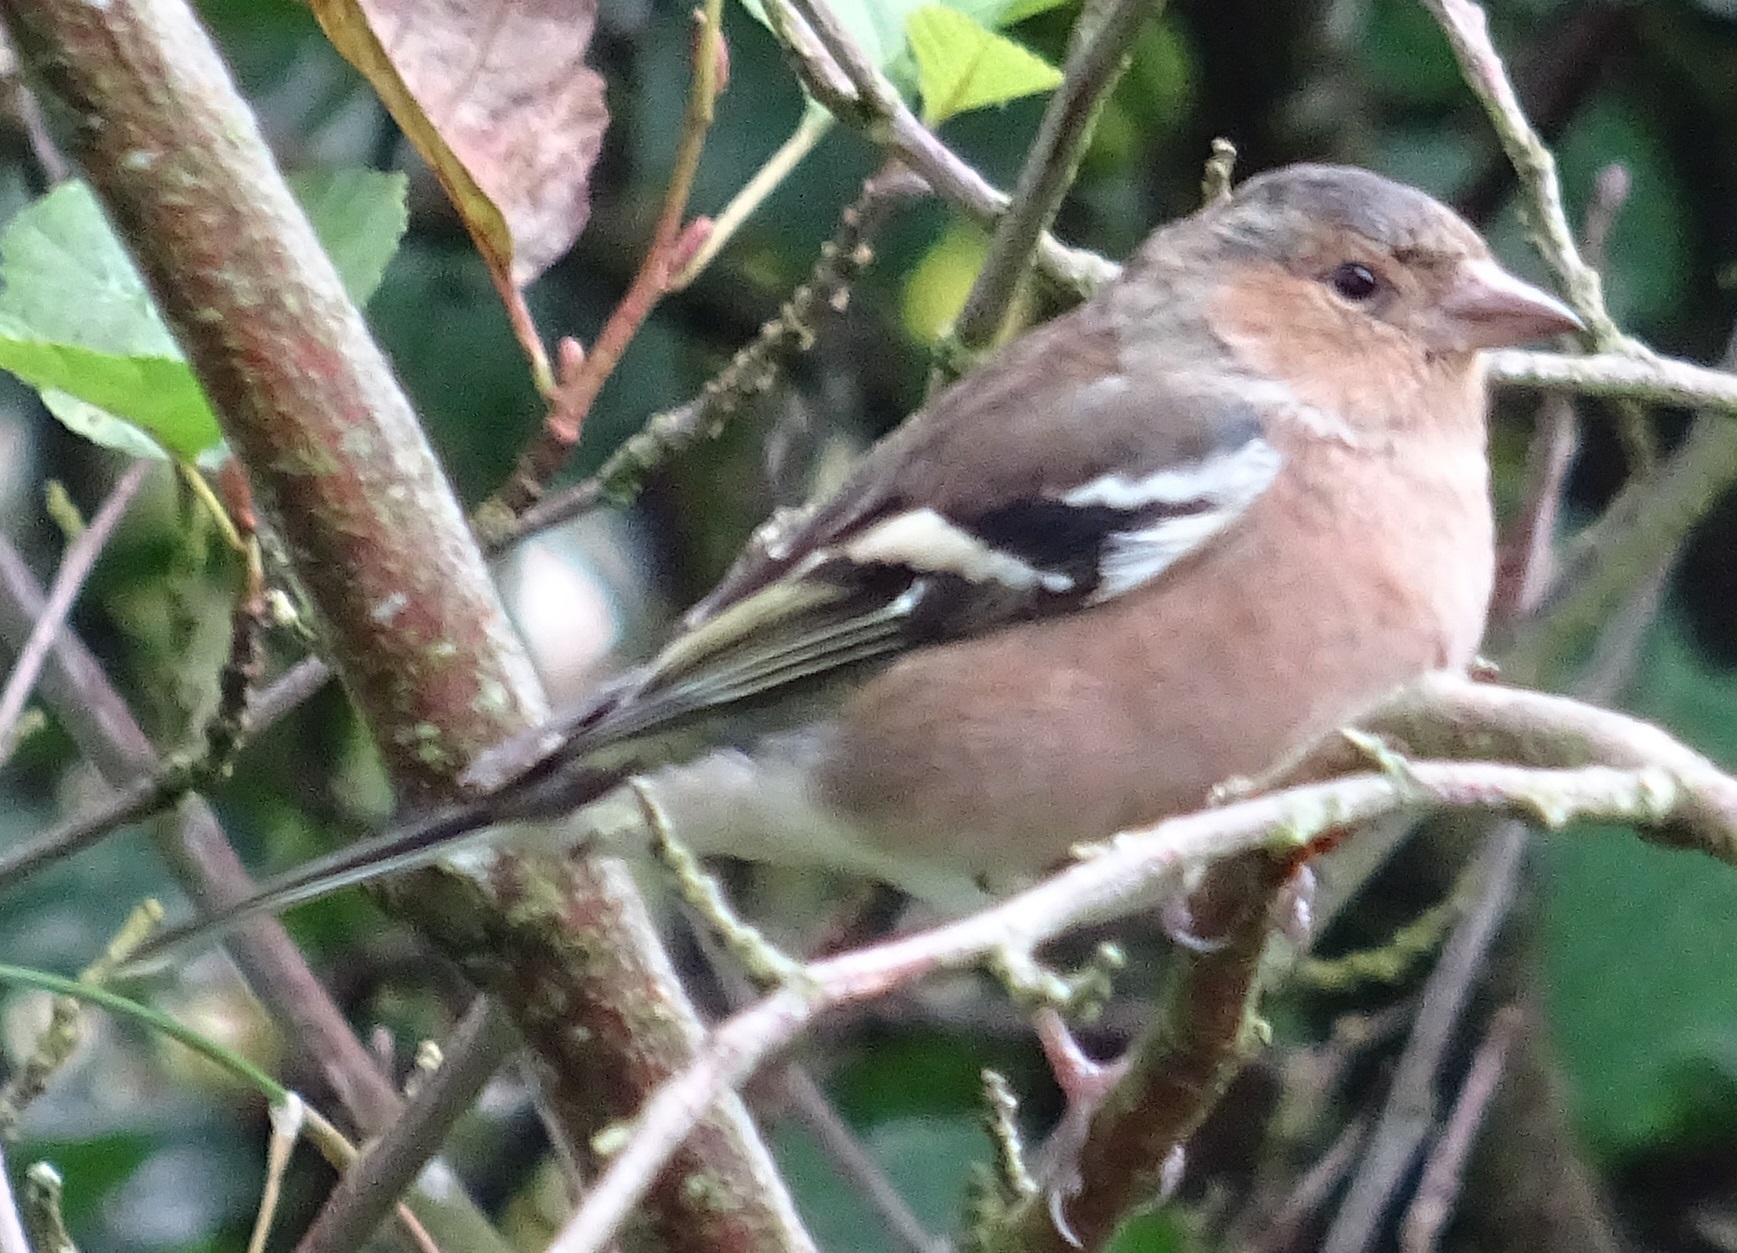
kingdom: Animalia
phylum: Chordata
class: Aves
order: Passeriformes
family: Fringillidae
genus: Fringilla
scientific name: Fringilla coelebs
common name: Common chaffinch
